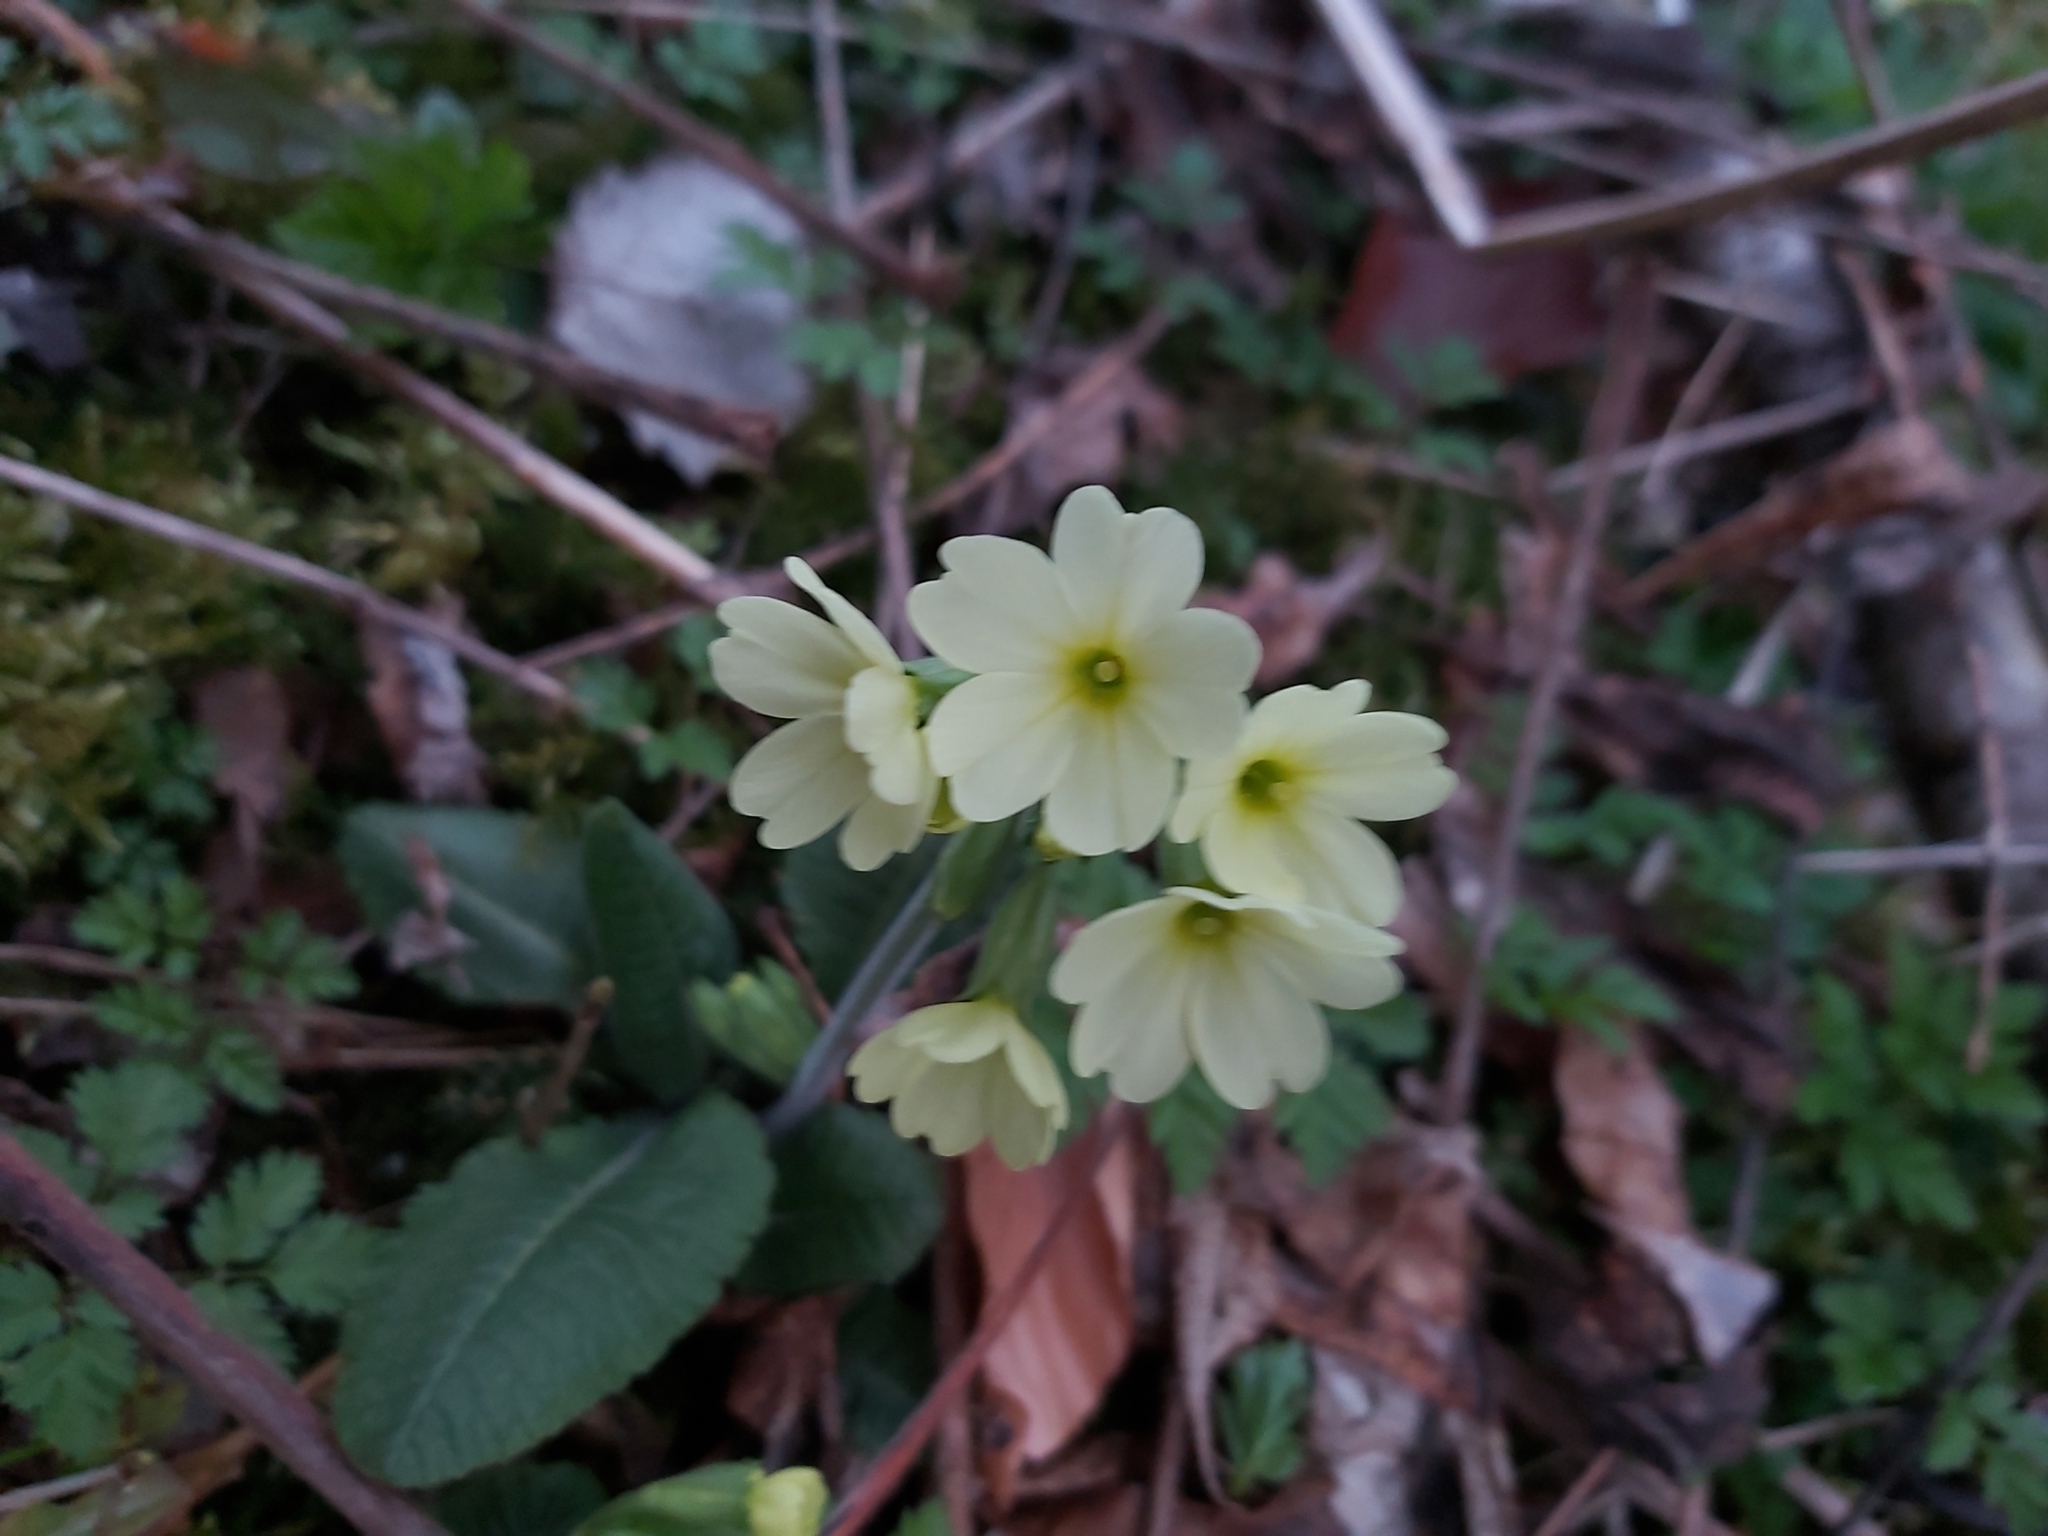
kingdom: Plantae
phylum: Tracheophyta
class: Magnoliopsida
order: Ericales
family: Primulaceae
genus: Primula
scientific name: Primula elatior
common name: Oxlip
